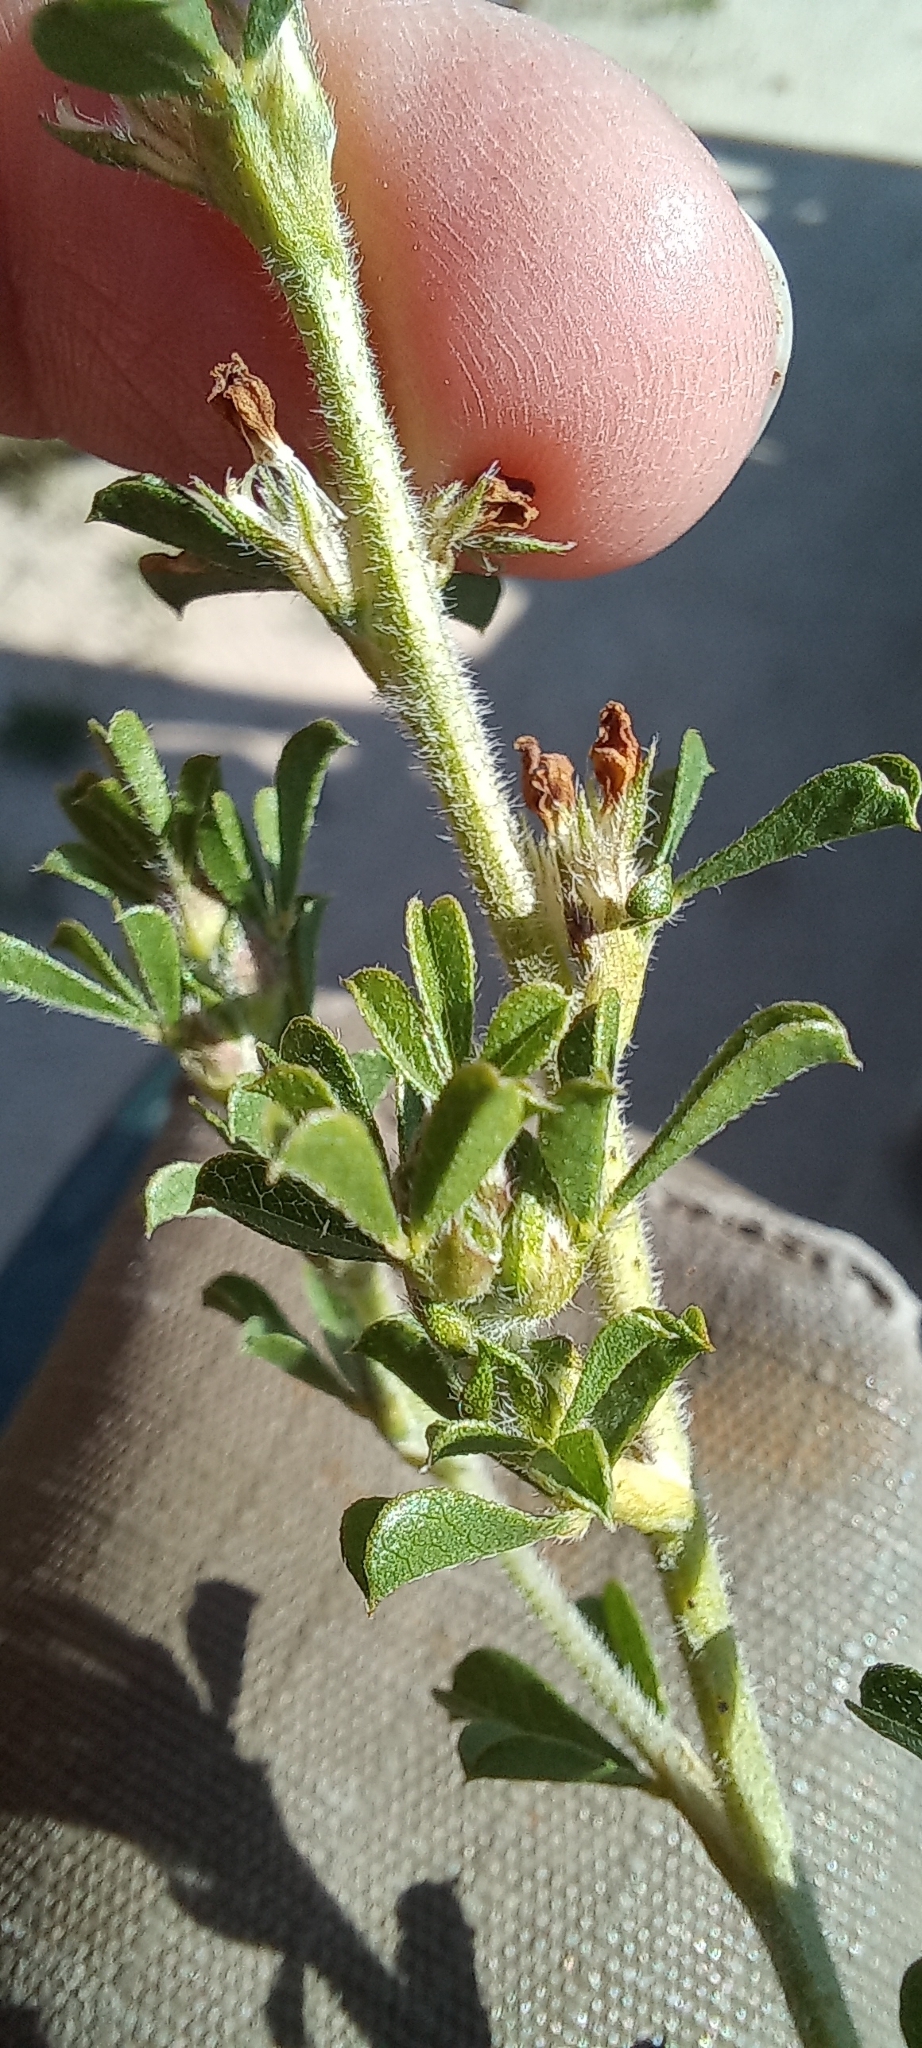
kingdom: Plantae
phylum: Tracheophyta
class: Magnoliopsida
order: Fabales
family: Fabaceae
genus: Psoralea
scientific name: Psoralea
